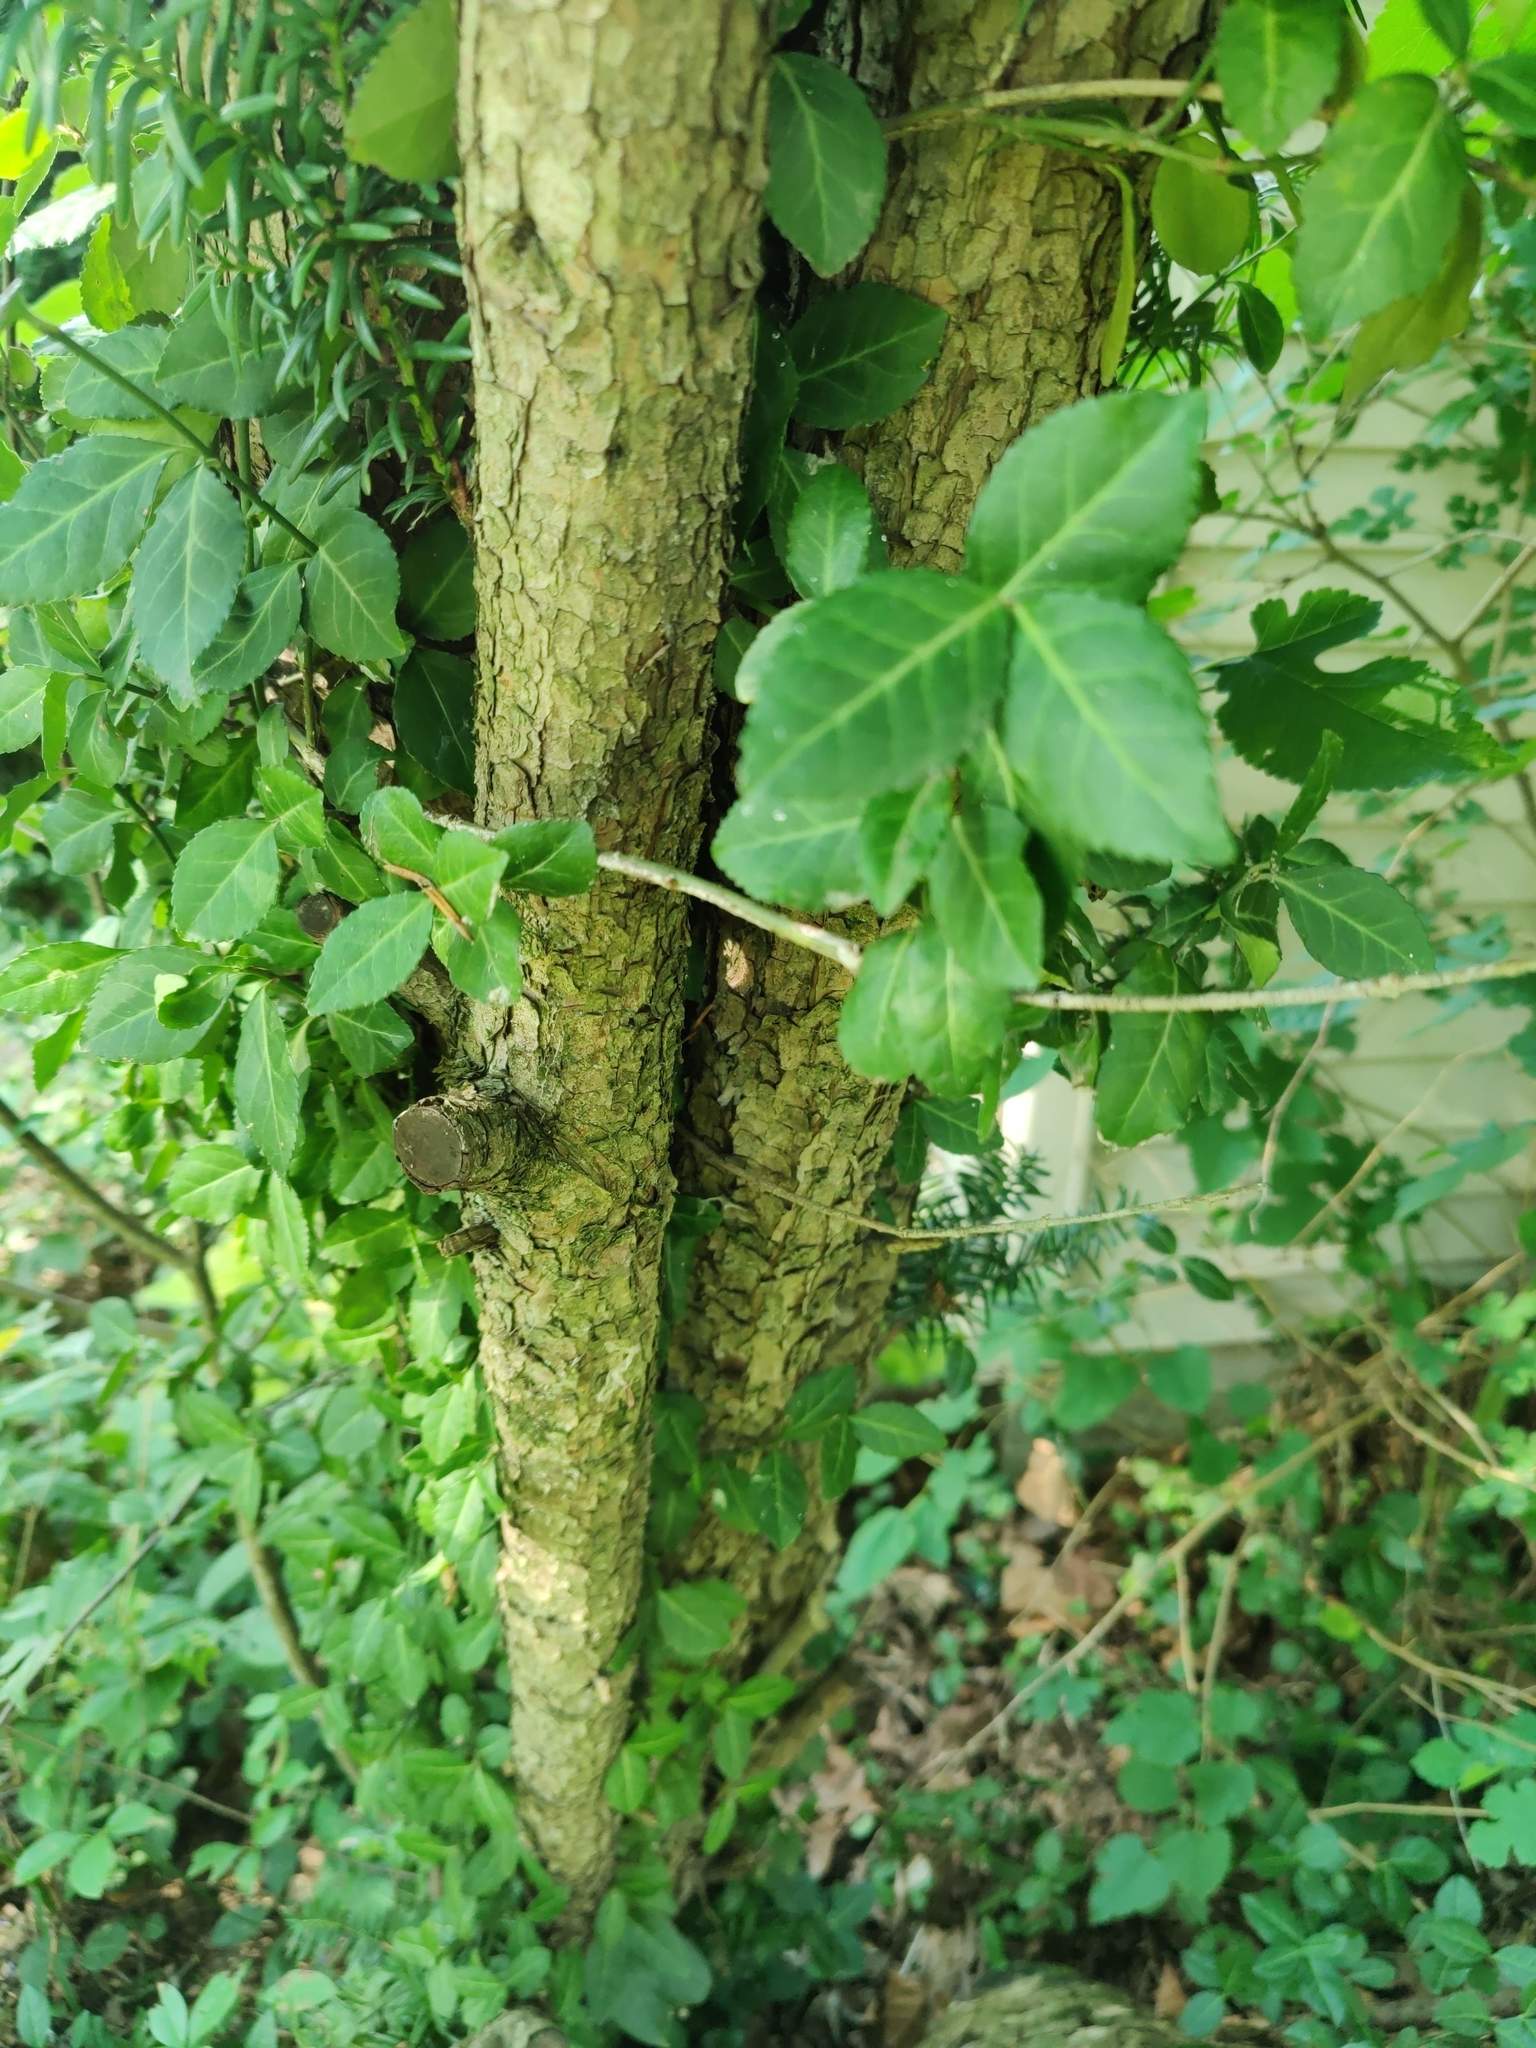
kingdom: Plantae
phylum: Tracheophyta
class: Magnoliopsida
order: Celastrales
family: Celastraceae
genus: Euonymus
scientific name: Euonymus fortunei
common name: Climbing euonymus
